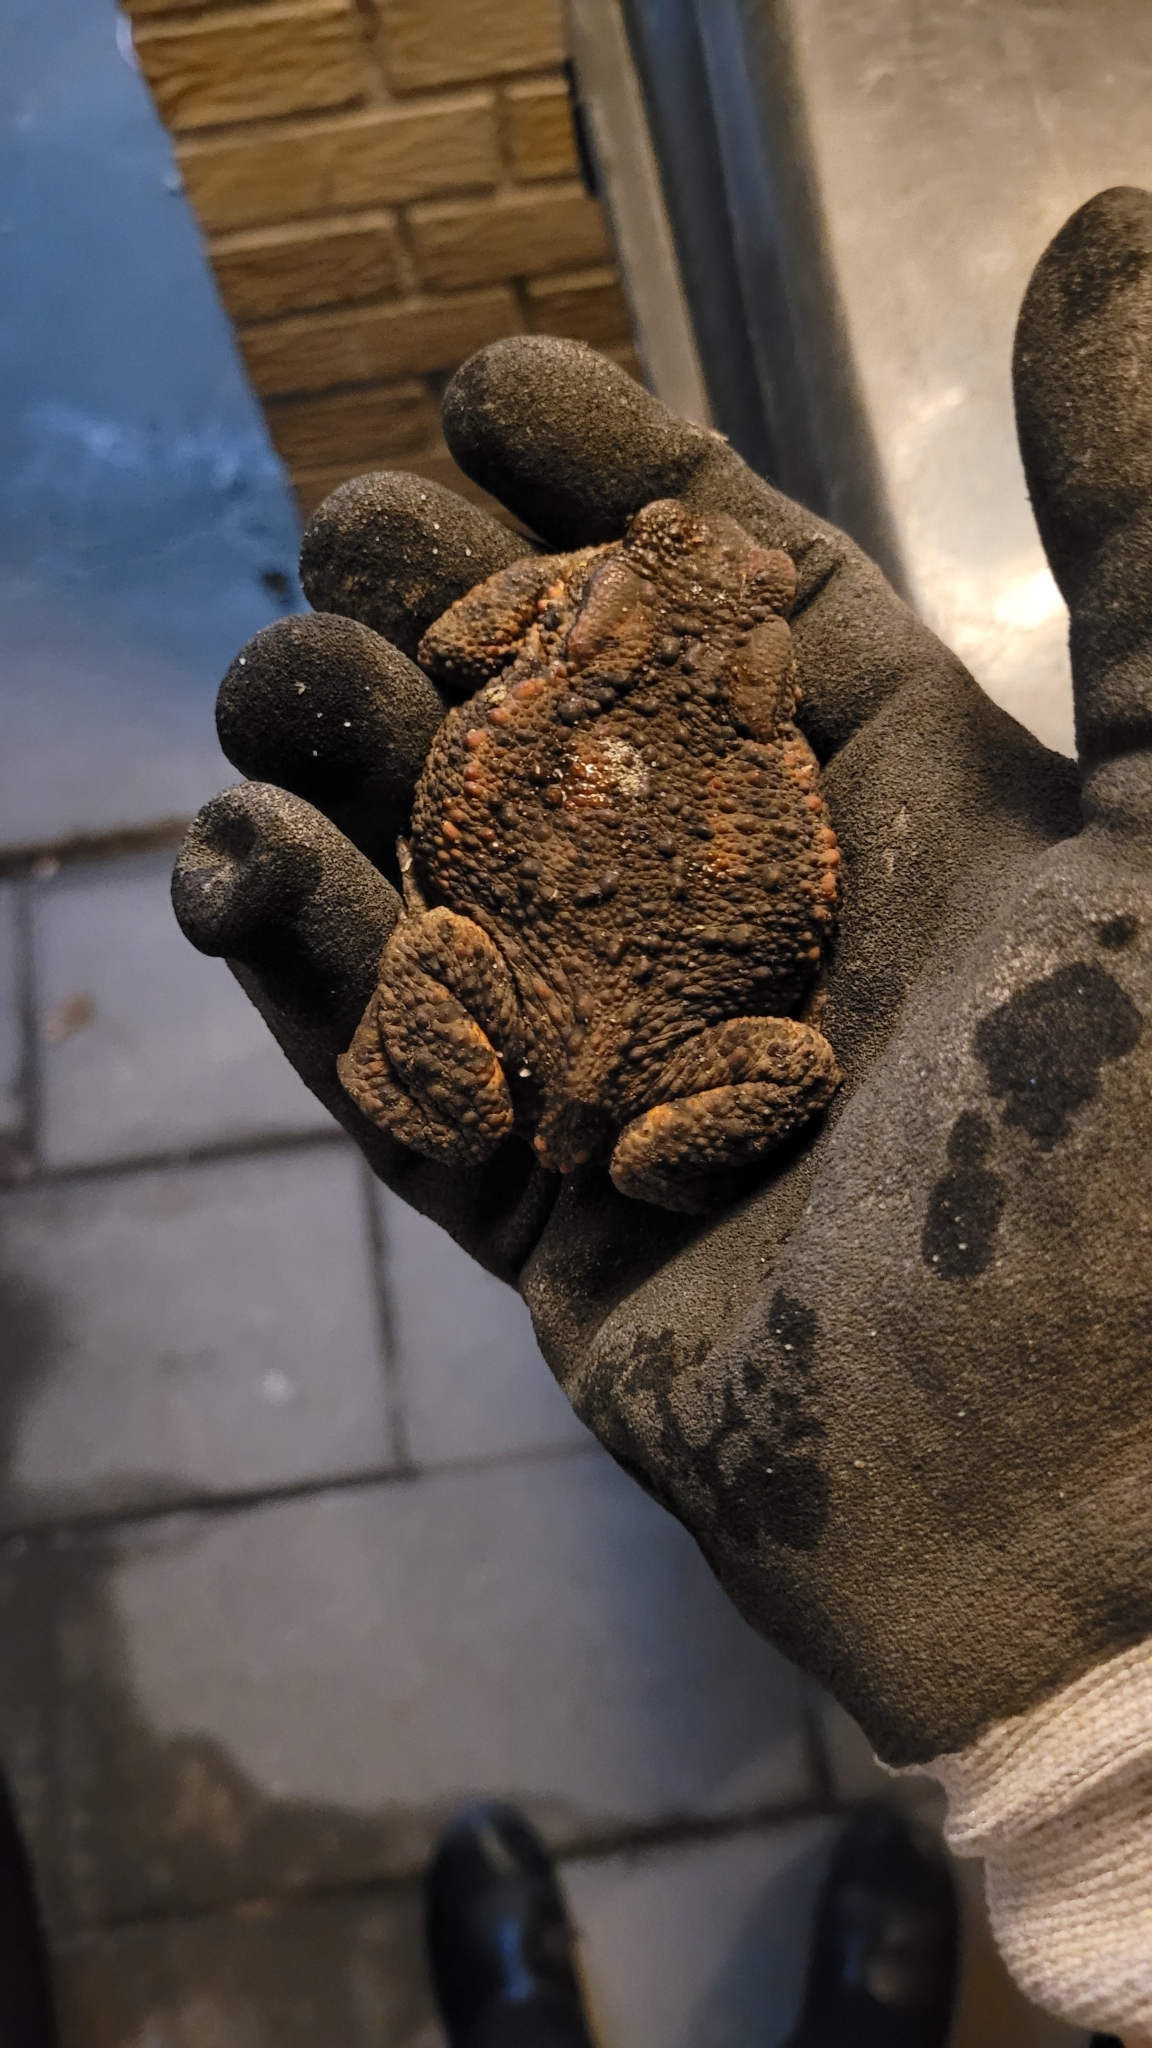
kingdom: Animalia
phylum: Chordata
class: Amphibia
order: Anura
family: Bufonidae
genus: Bufo
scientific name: Bufo bufo
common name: Common toad
